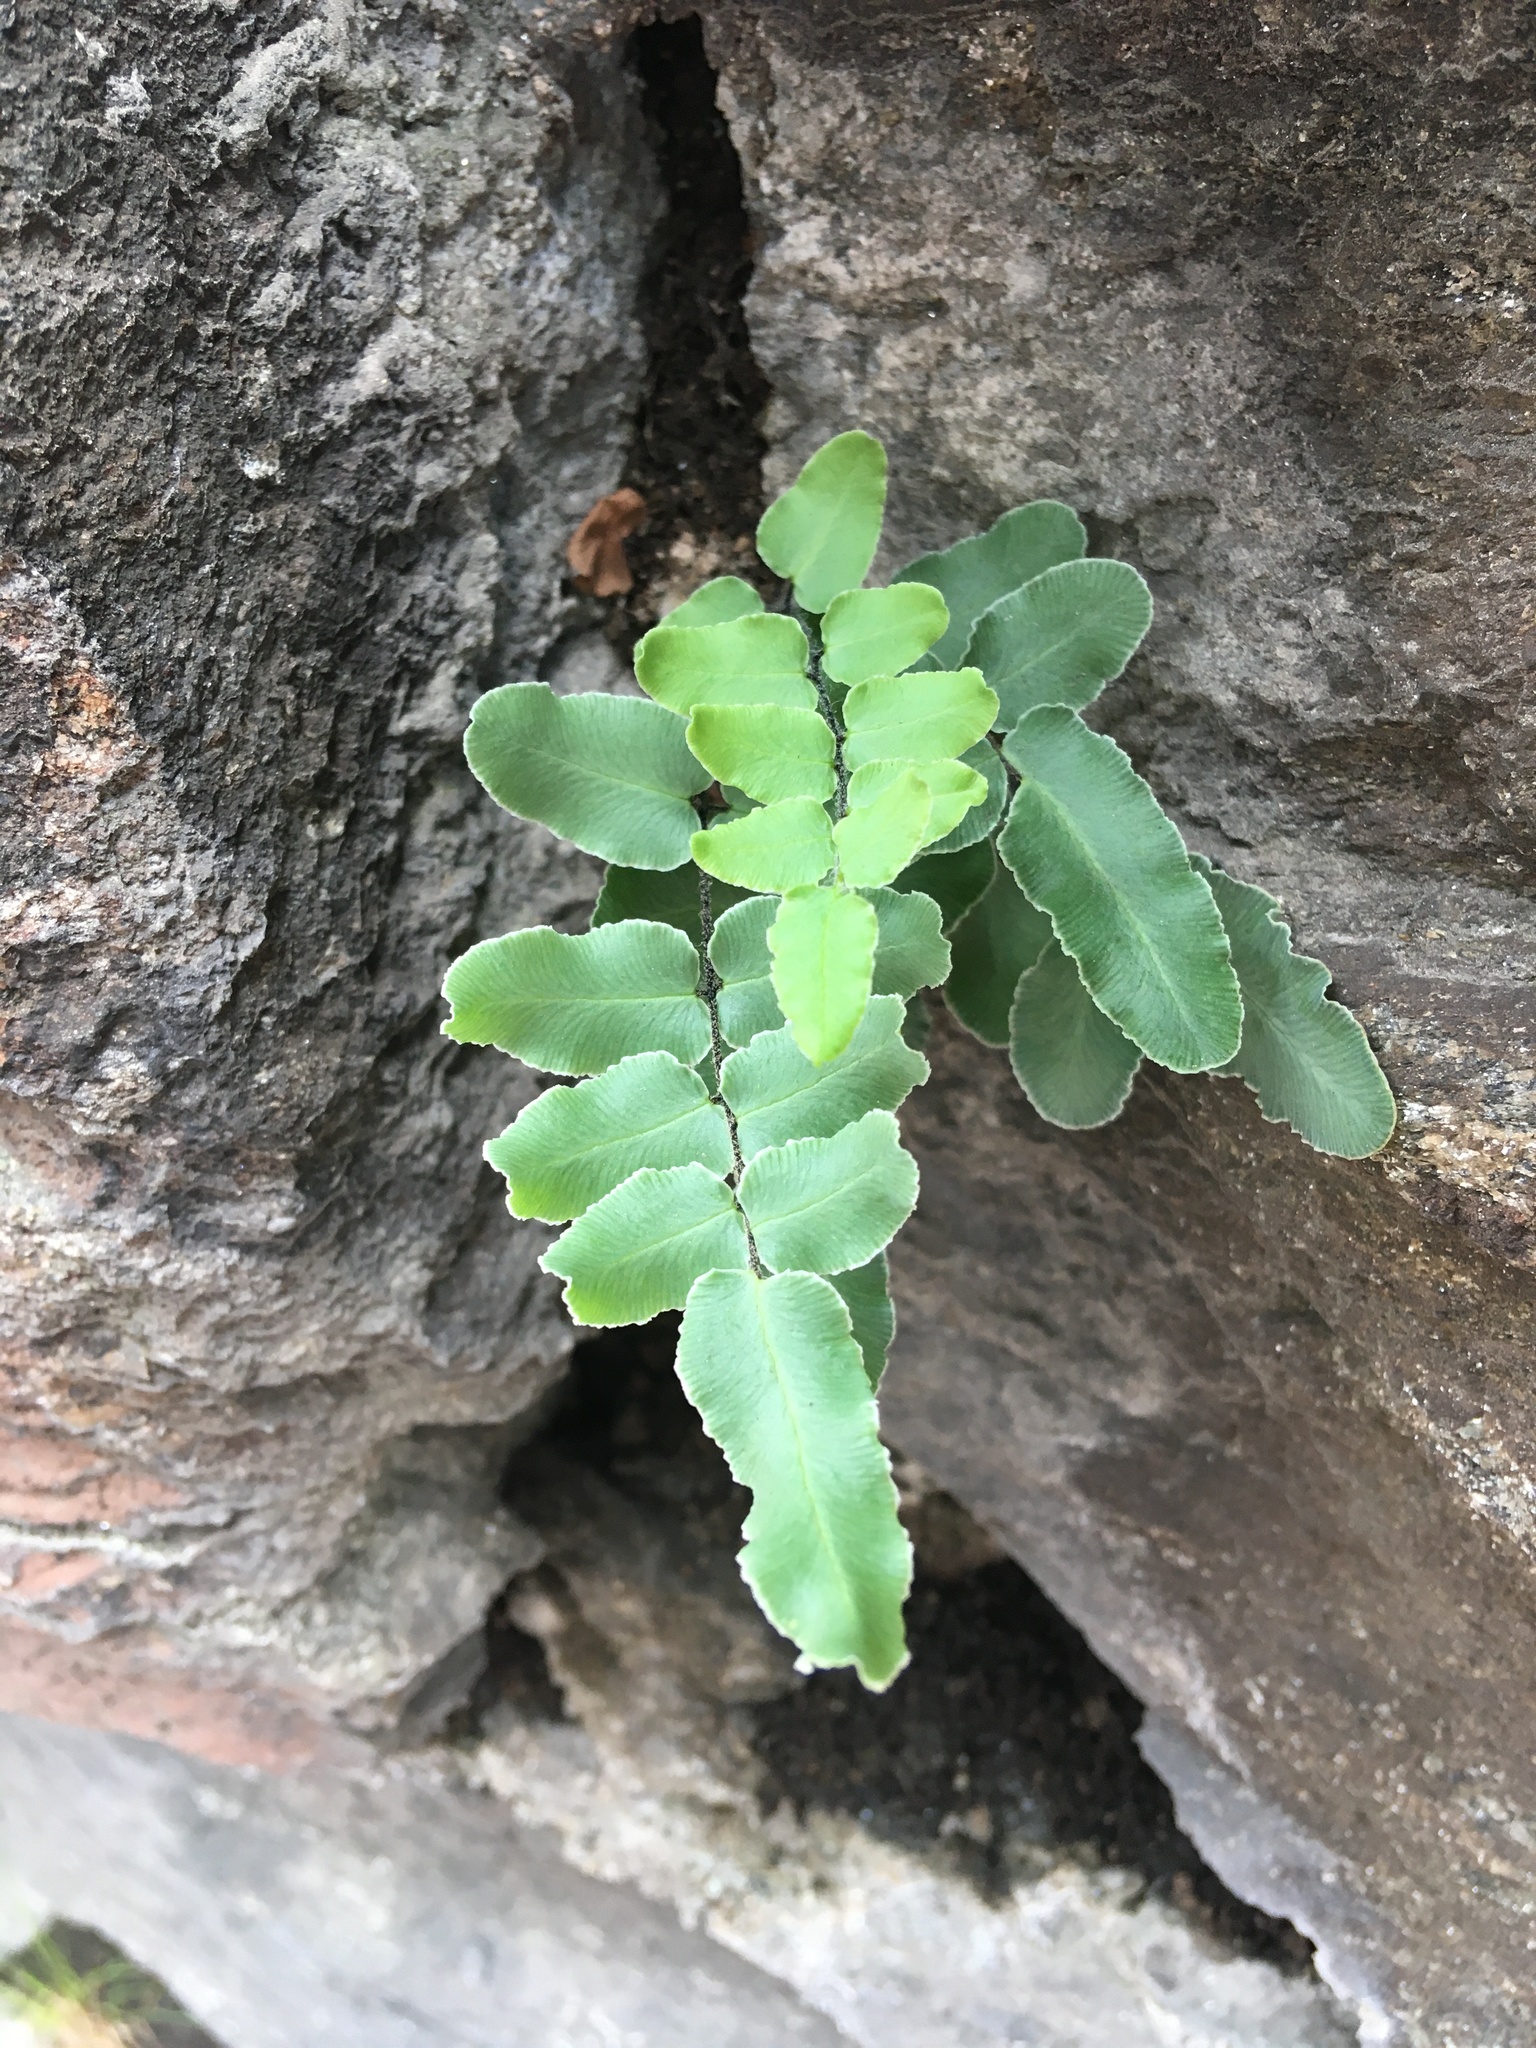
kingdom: Plantae
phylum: Tracheophyta
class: Polypodiopsida
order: Polypodiales
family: Pteridaceae
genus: Pellaea
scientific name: Pellaea atropurpurea
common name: Hairy cliffbrake
